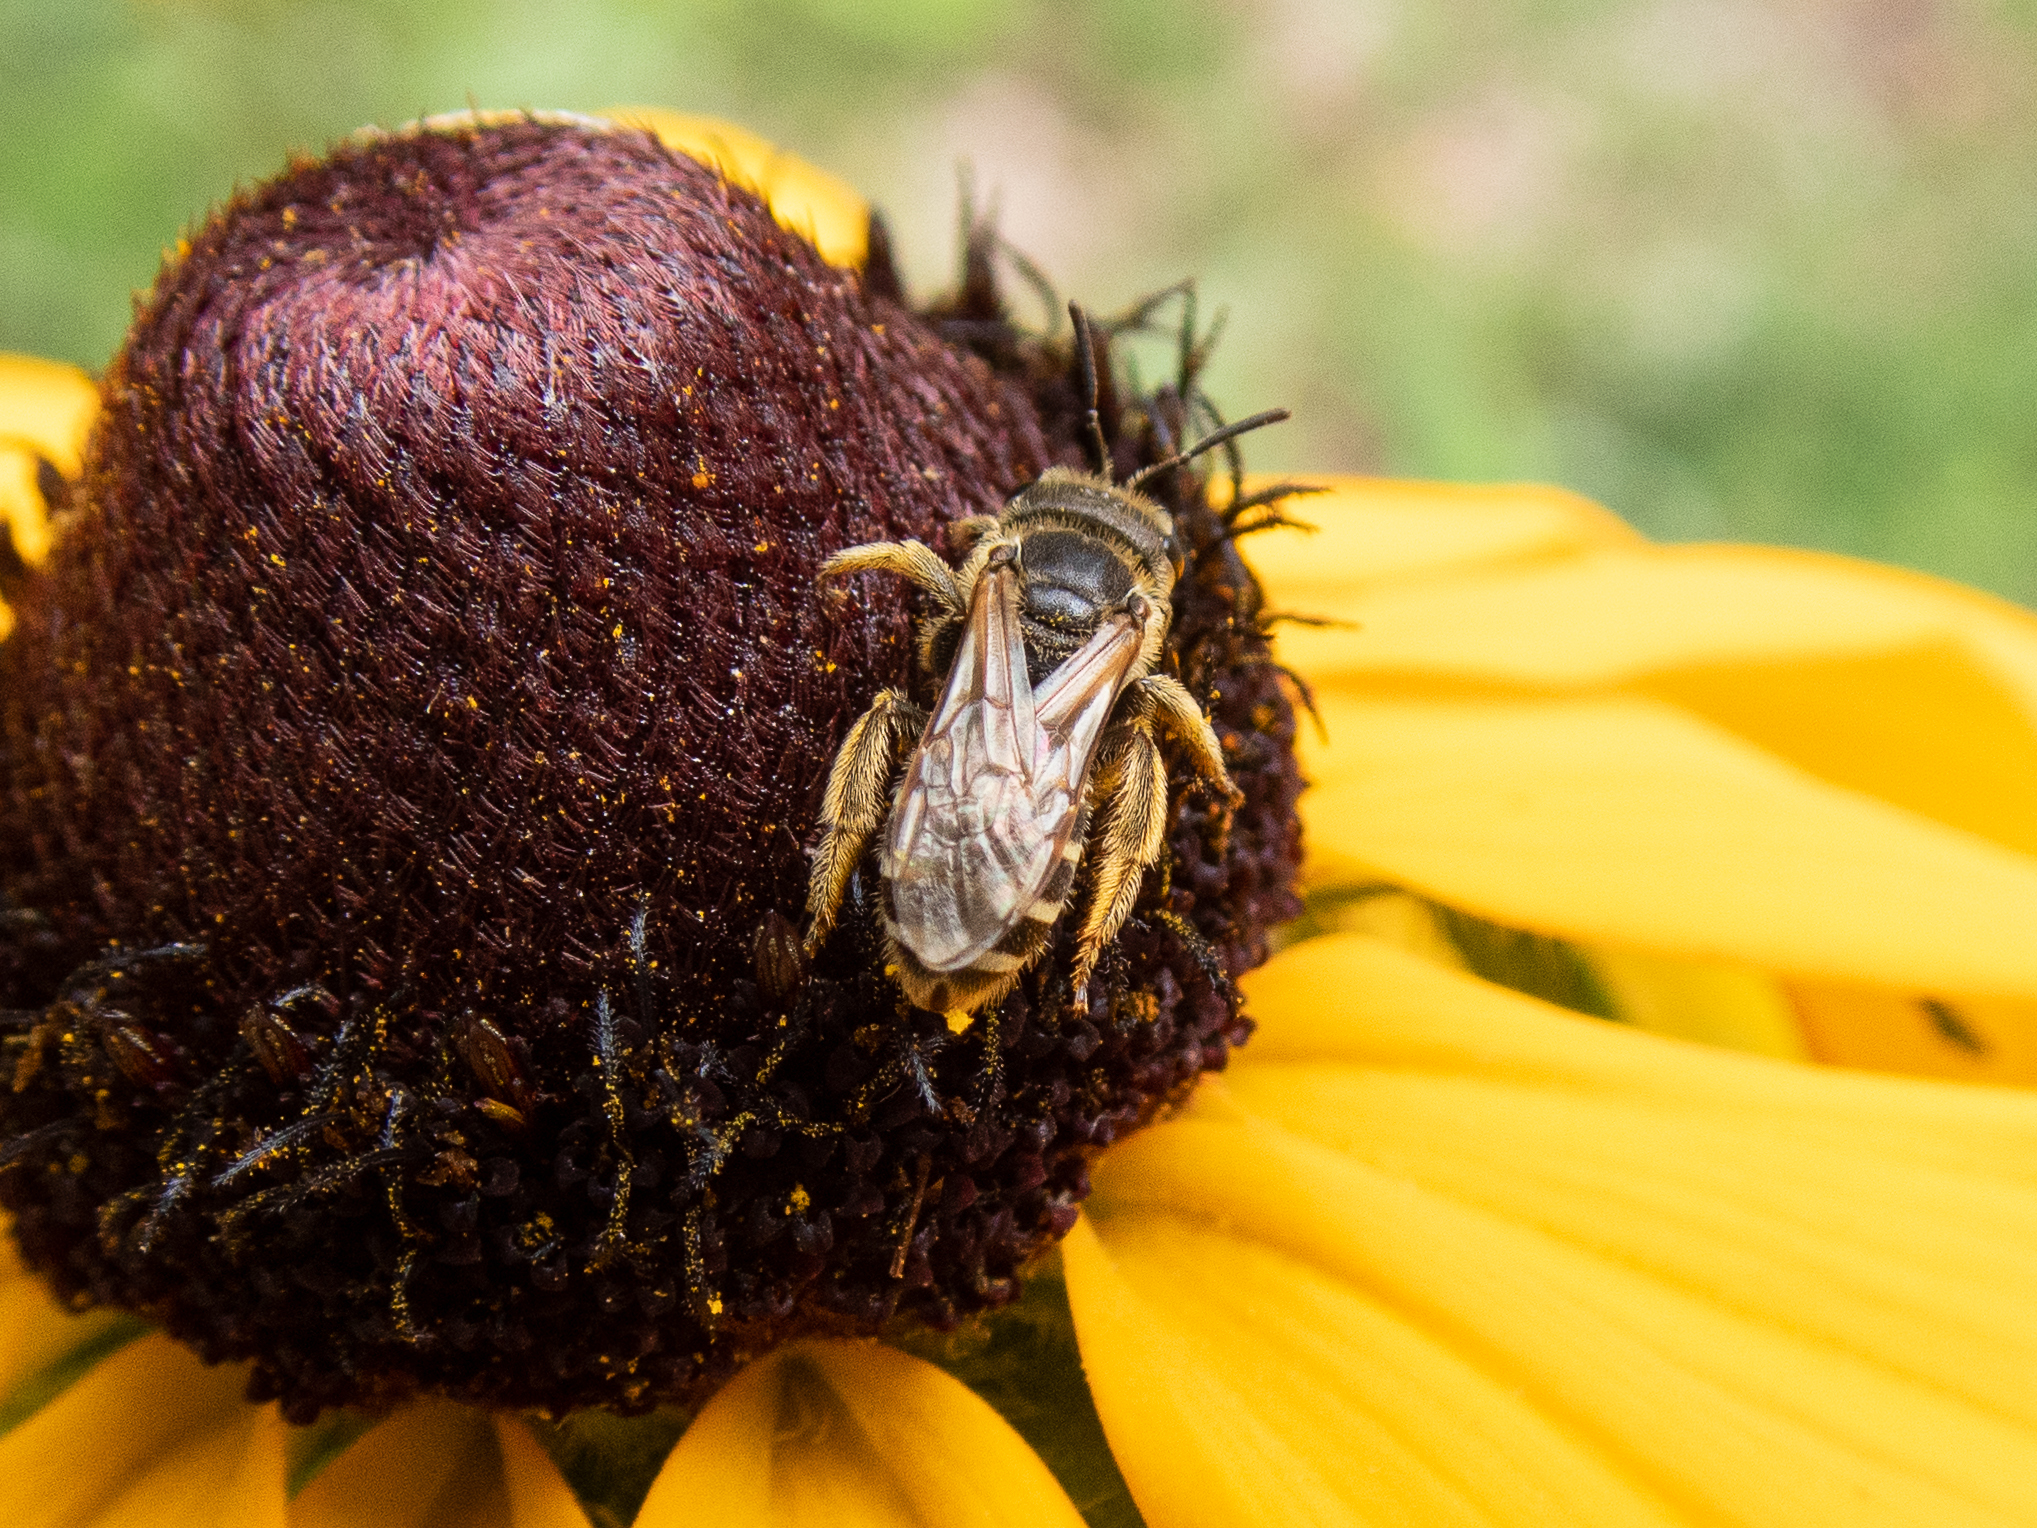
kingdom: Animalia
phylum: Arthropoda
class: Insecta
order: Hymenoptera
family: Halictidae
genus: Halictus
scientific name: Halictus ligatus
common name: Ligated furrow bee
